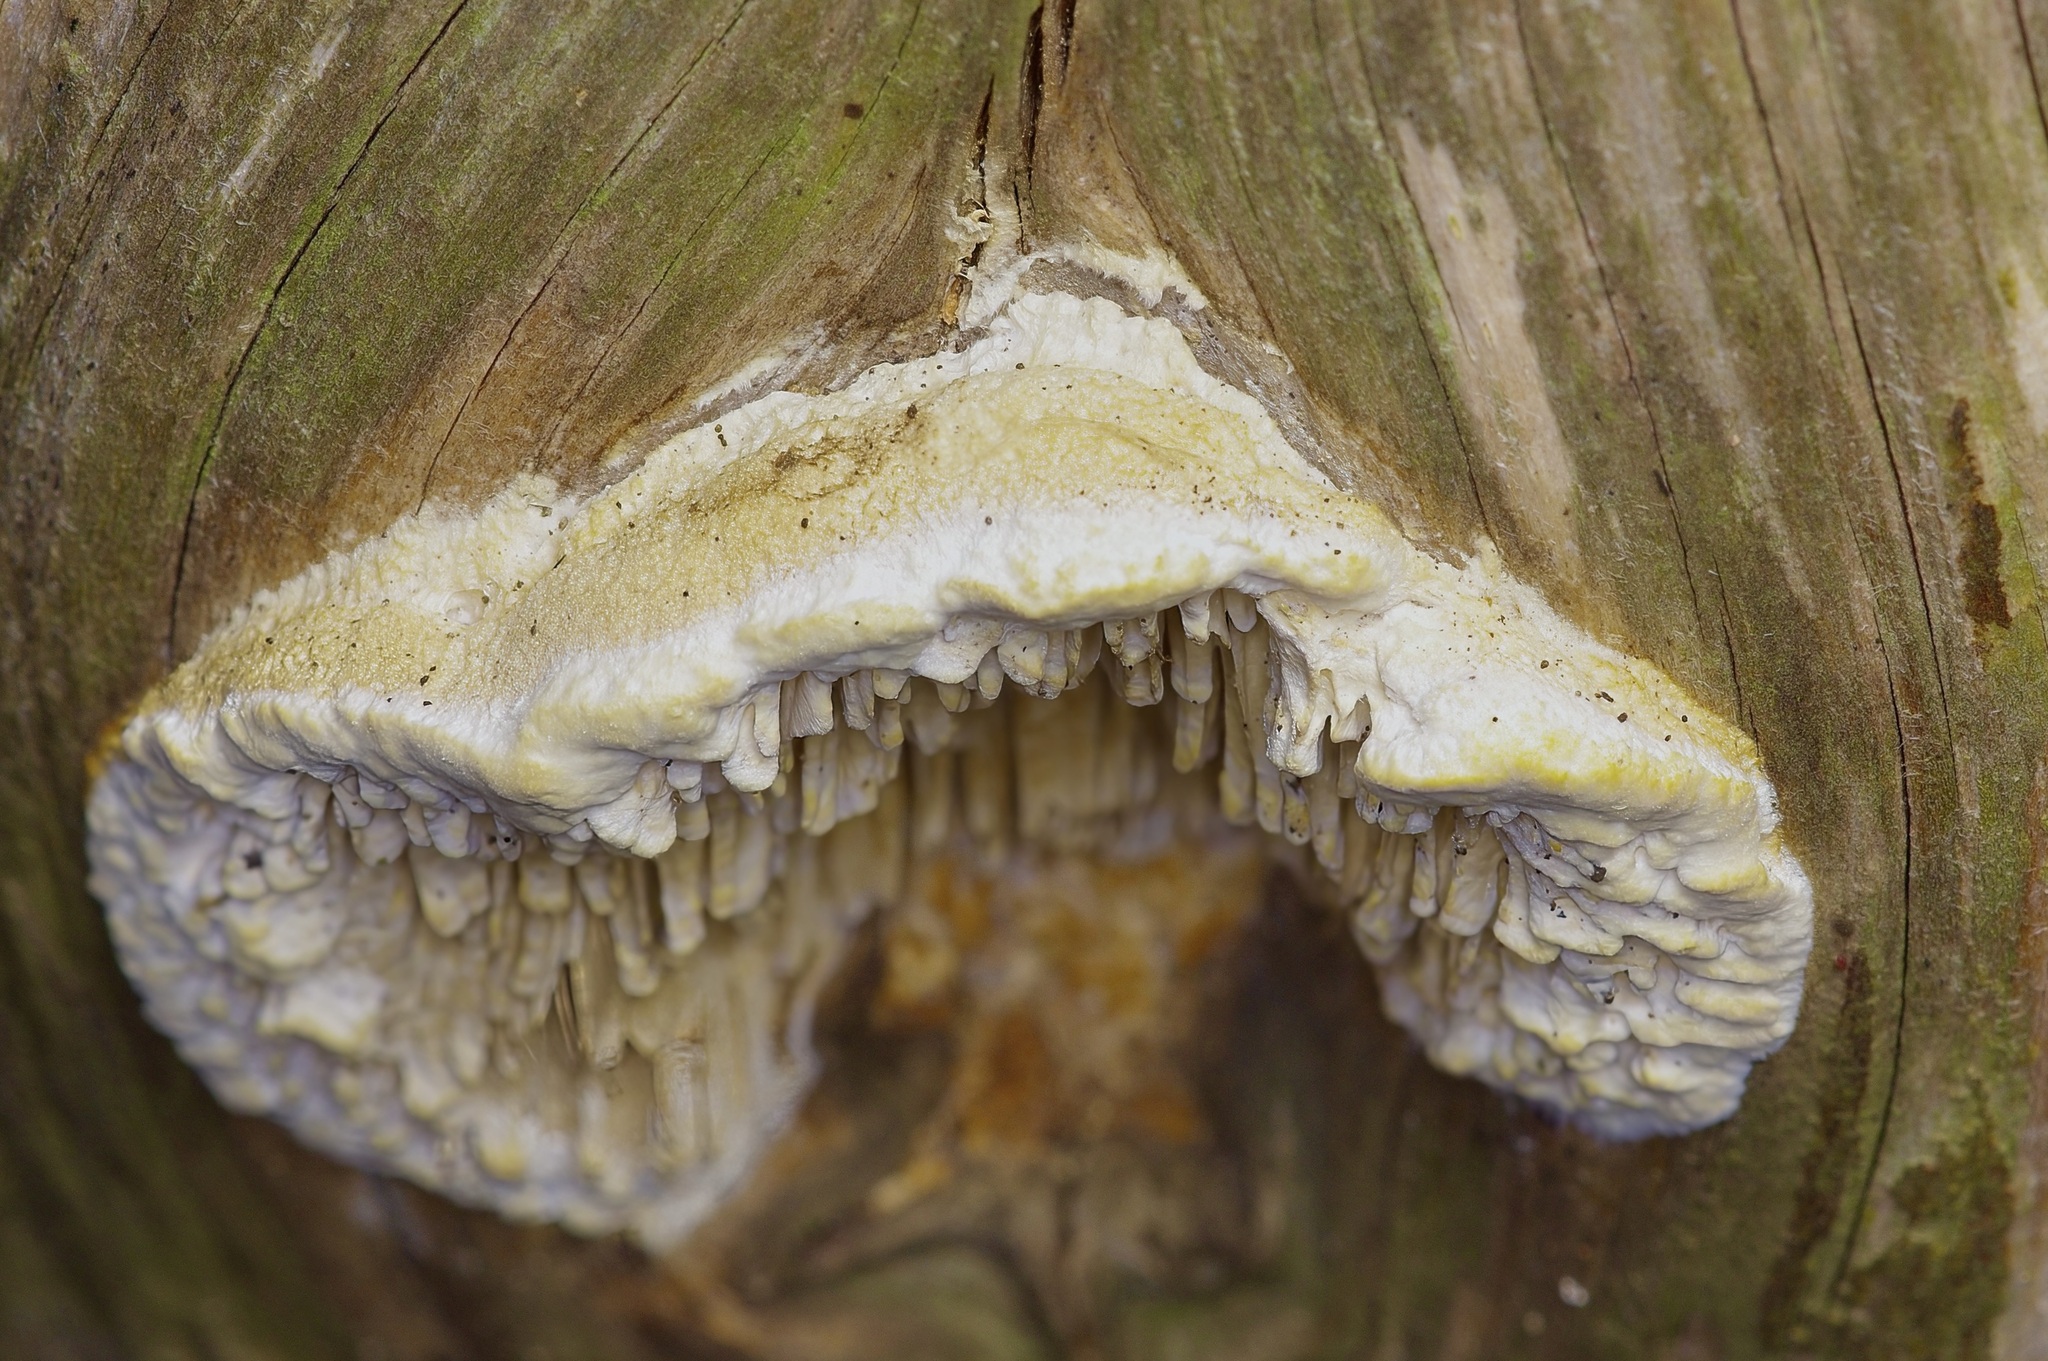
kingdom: Fungi
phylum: Basidiomycota
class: Agaricomycetes
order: Polyporales
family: Fomitopsidaceae
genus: Fomitopsis
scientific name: Fomitopsis
